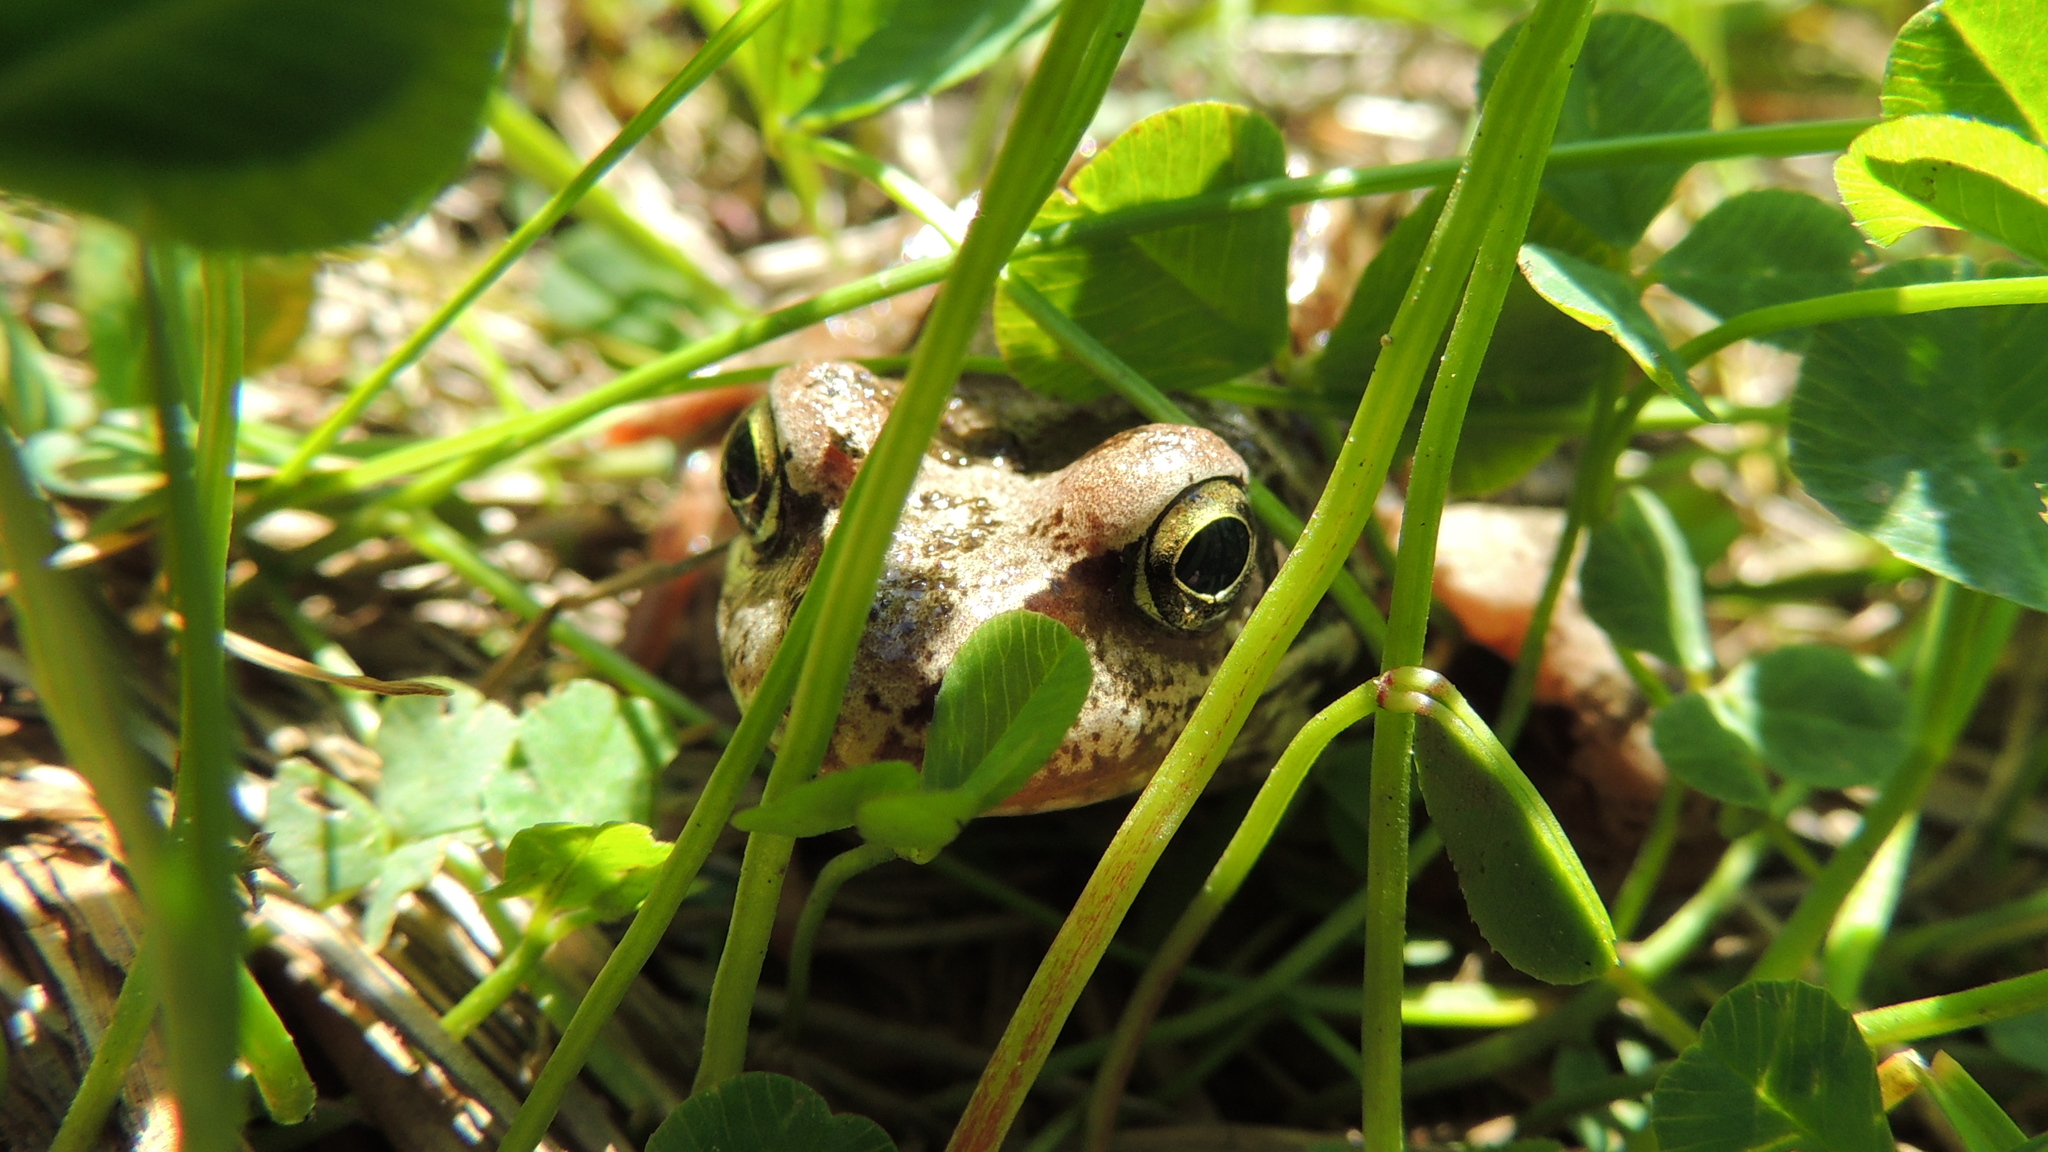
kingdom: Animalia
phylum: Chordata
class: Amphibia
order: Anura
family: Ranidae
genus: Rana
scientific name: Rana temporaria
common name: Common frog
